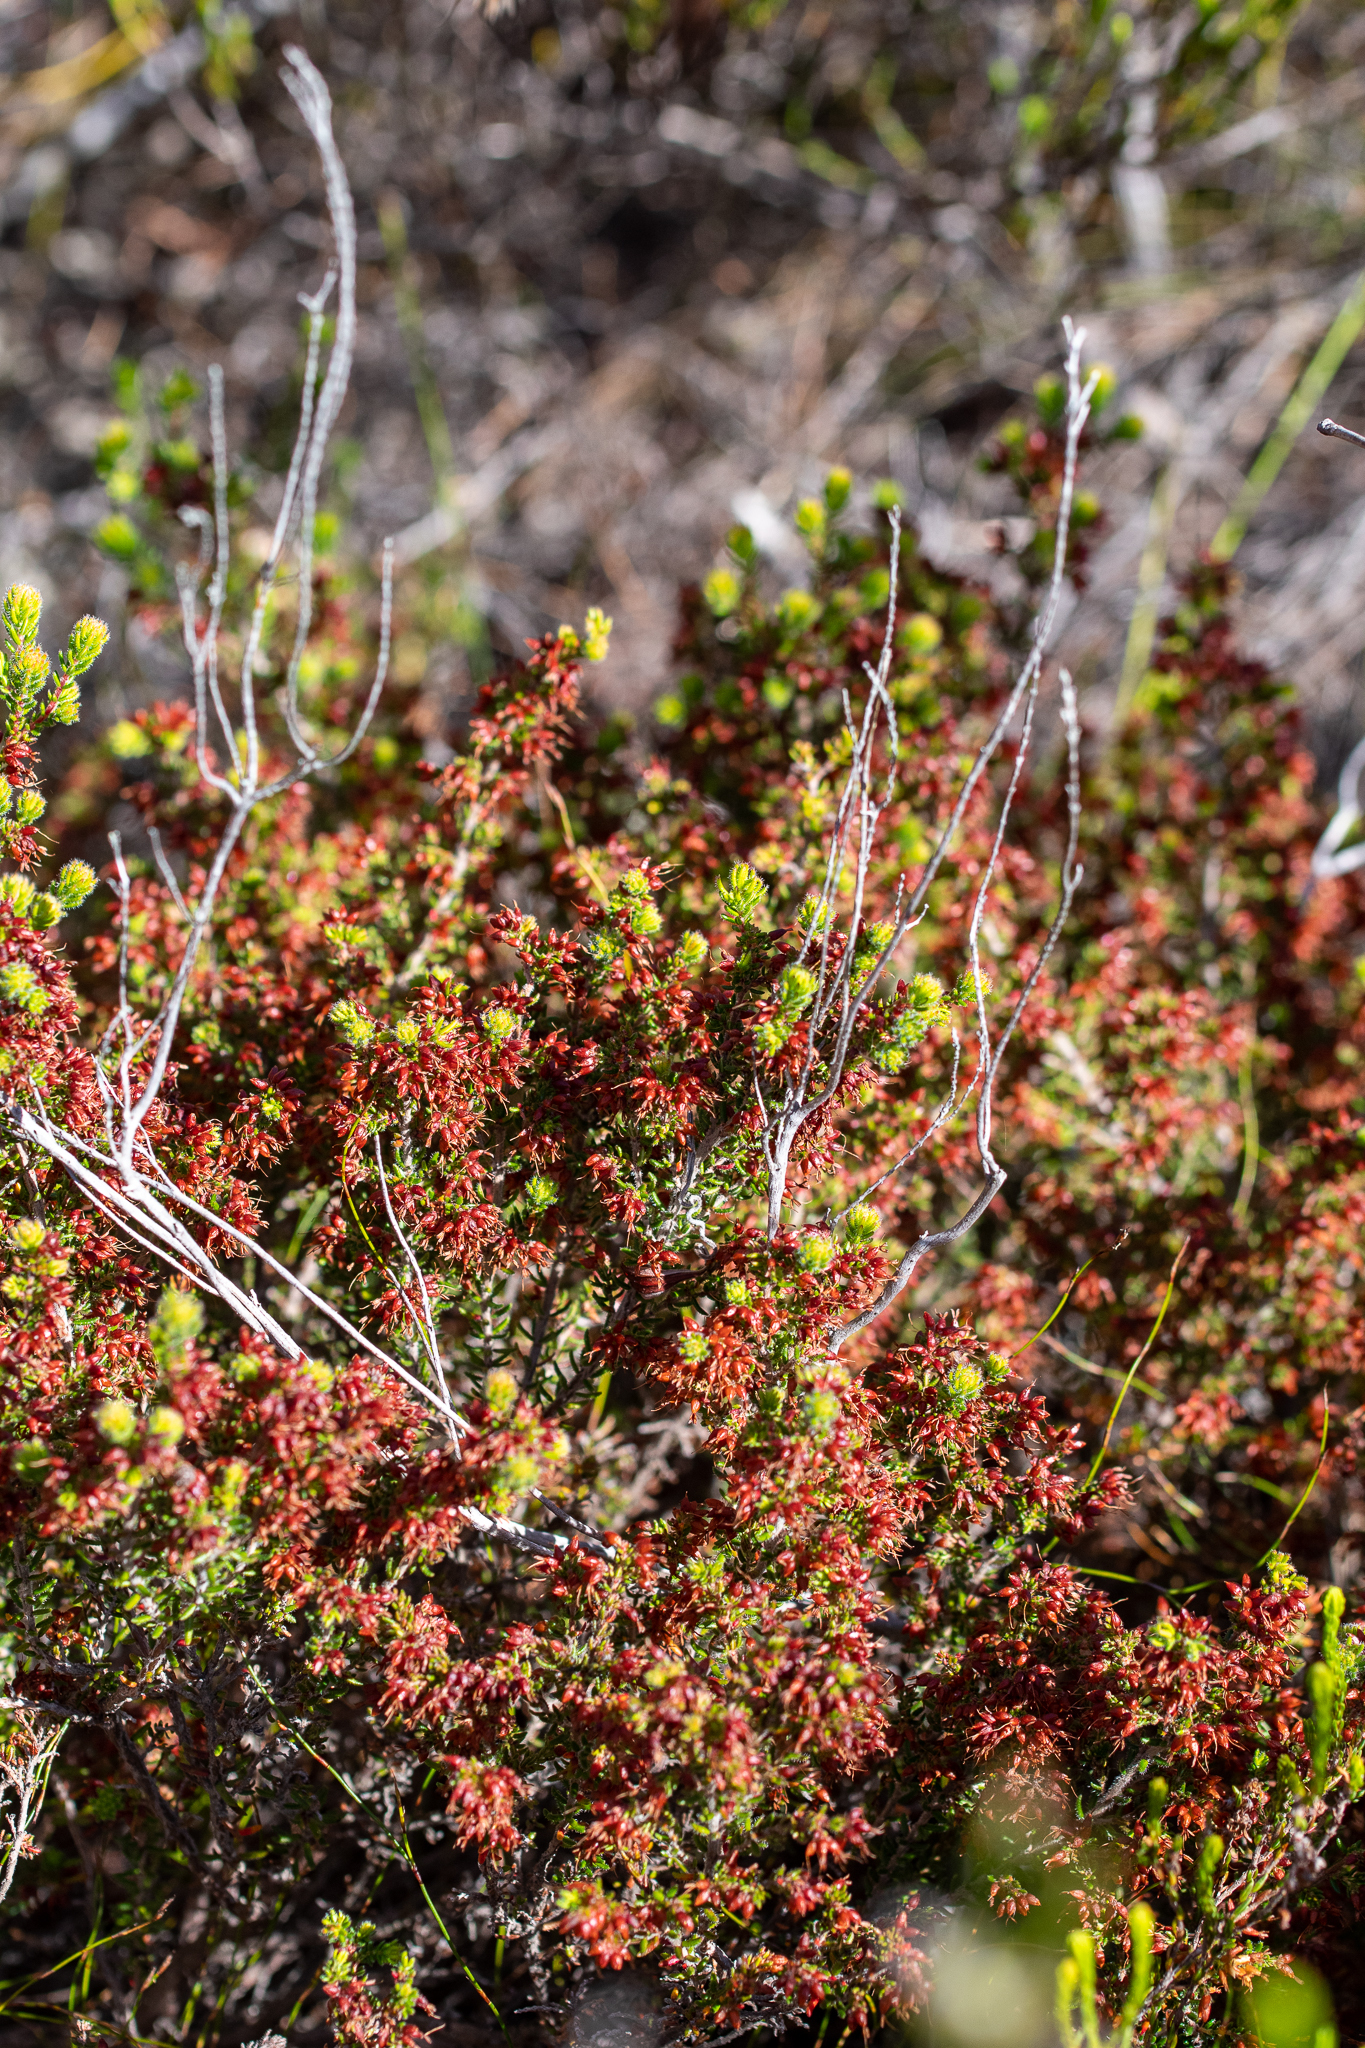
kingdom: Plantae
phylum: Tracheophyta
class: Magnoliopsida
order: Ericales
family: Ericaceae
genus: Erica
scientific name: Erica interrupta
